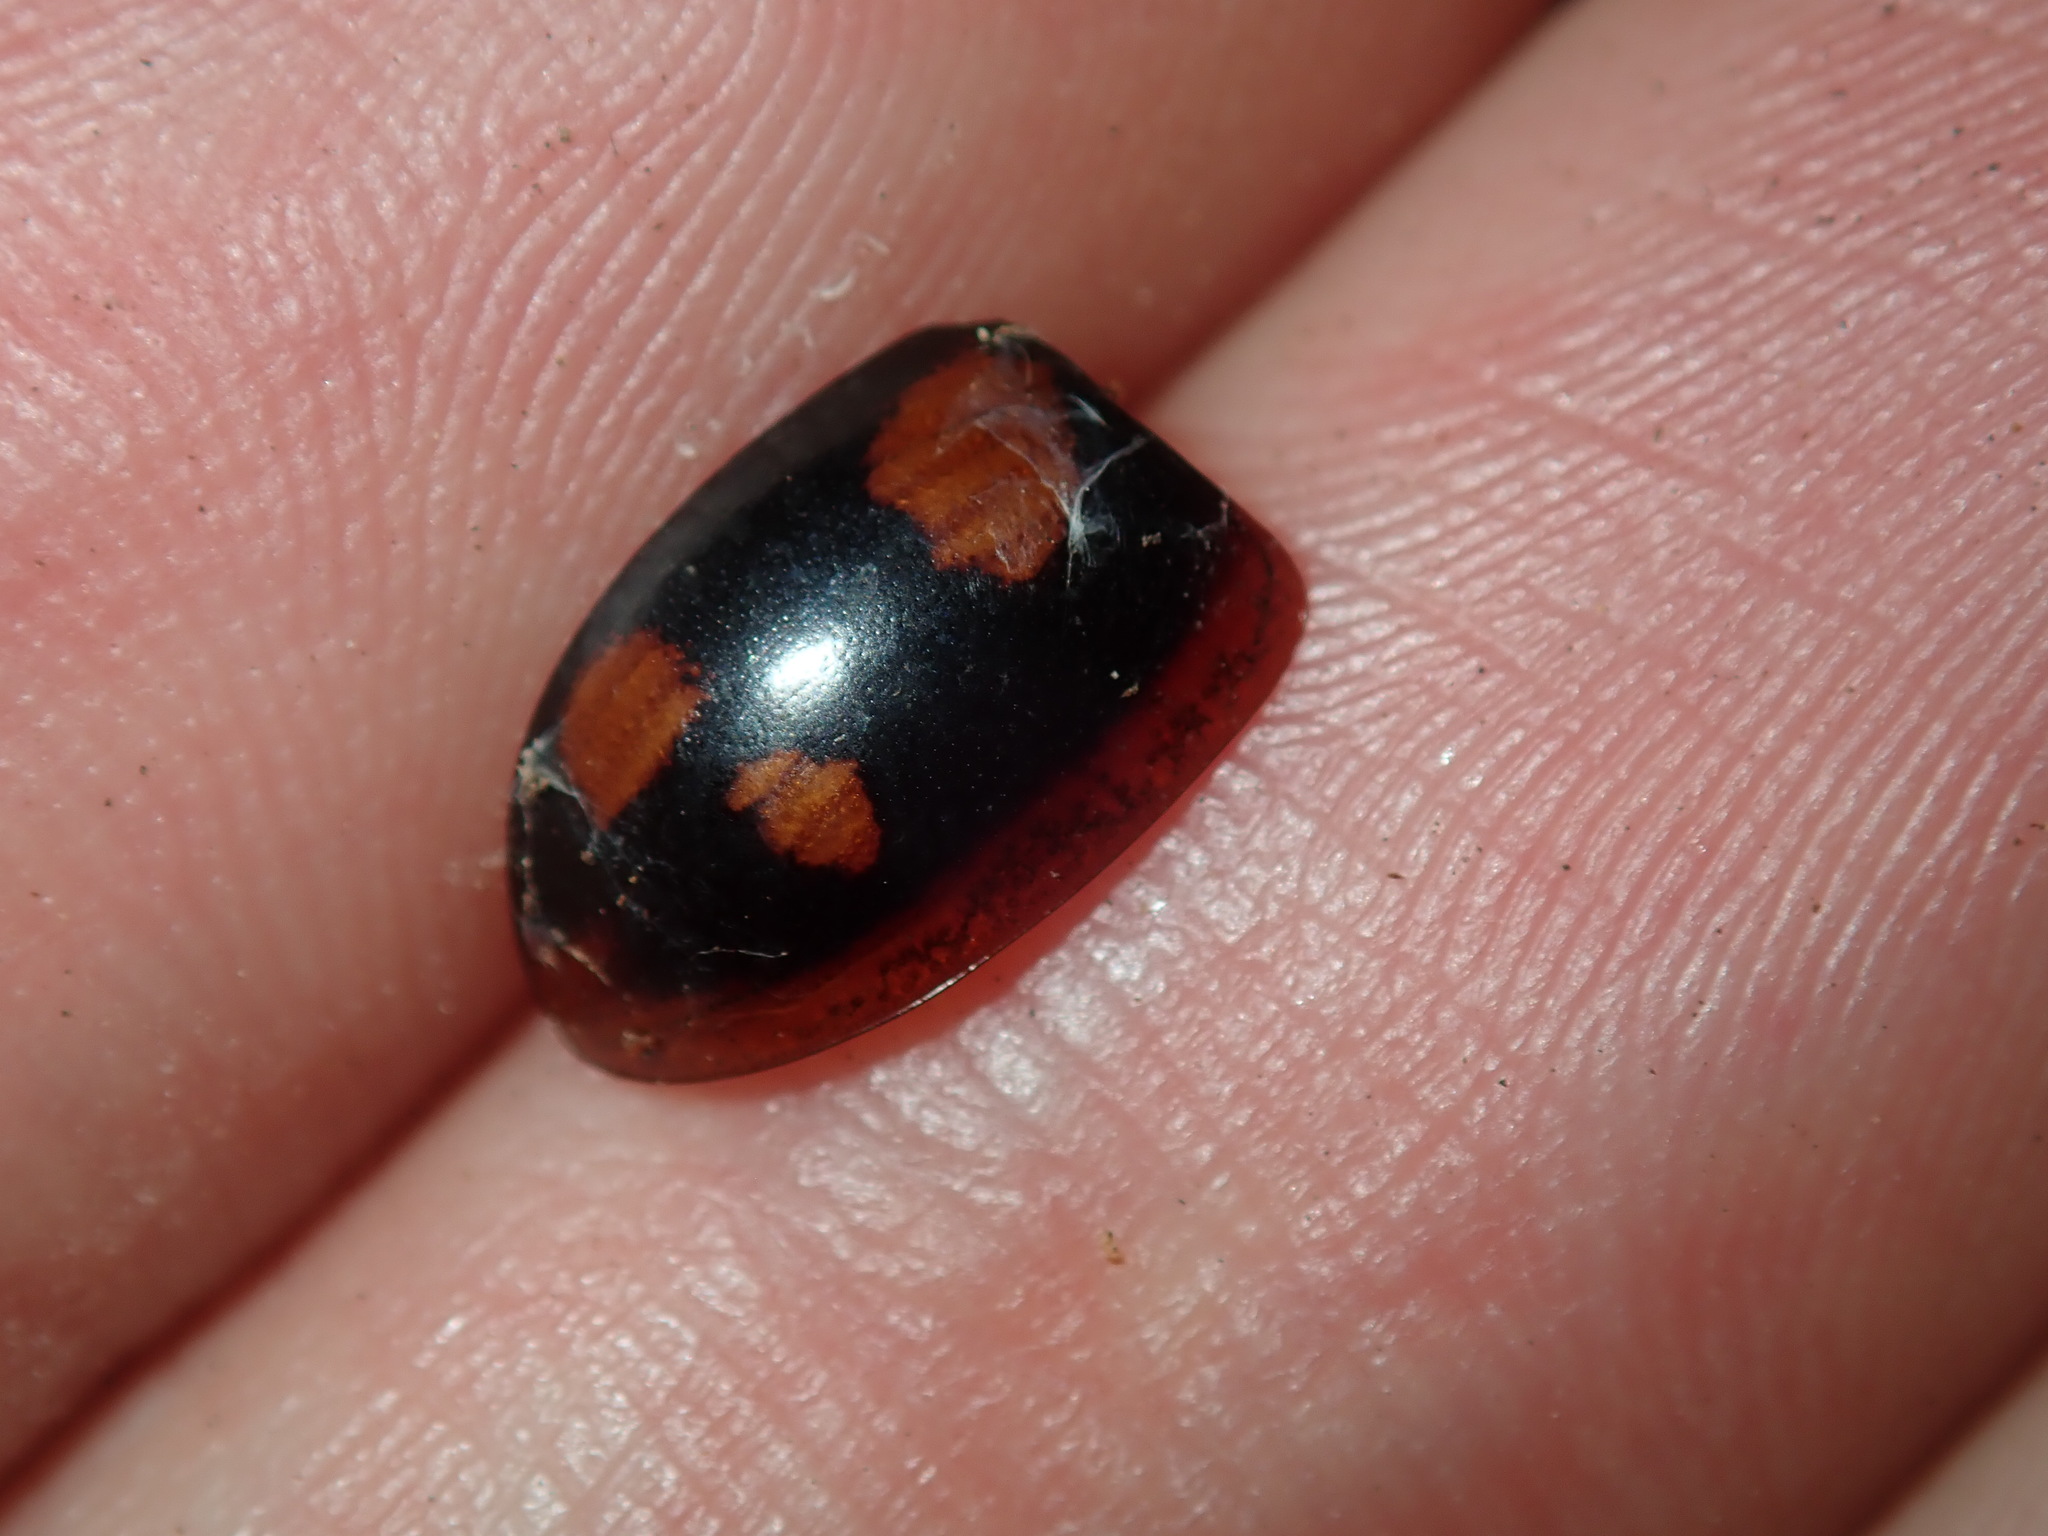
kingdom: Animalia
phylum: Arthropoda
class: Insecta
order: Coleoptera
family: Chrysomelidae
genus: Paropsisterna
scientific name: Paropsisterna beata
